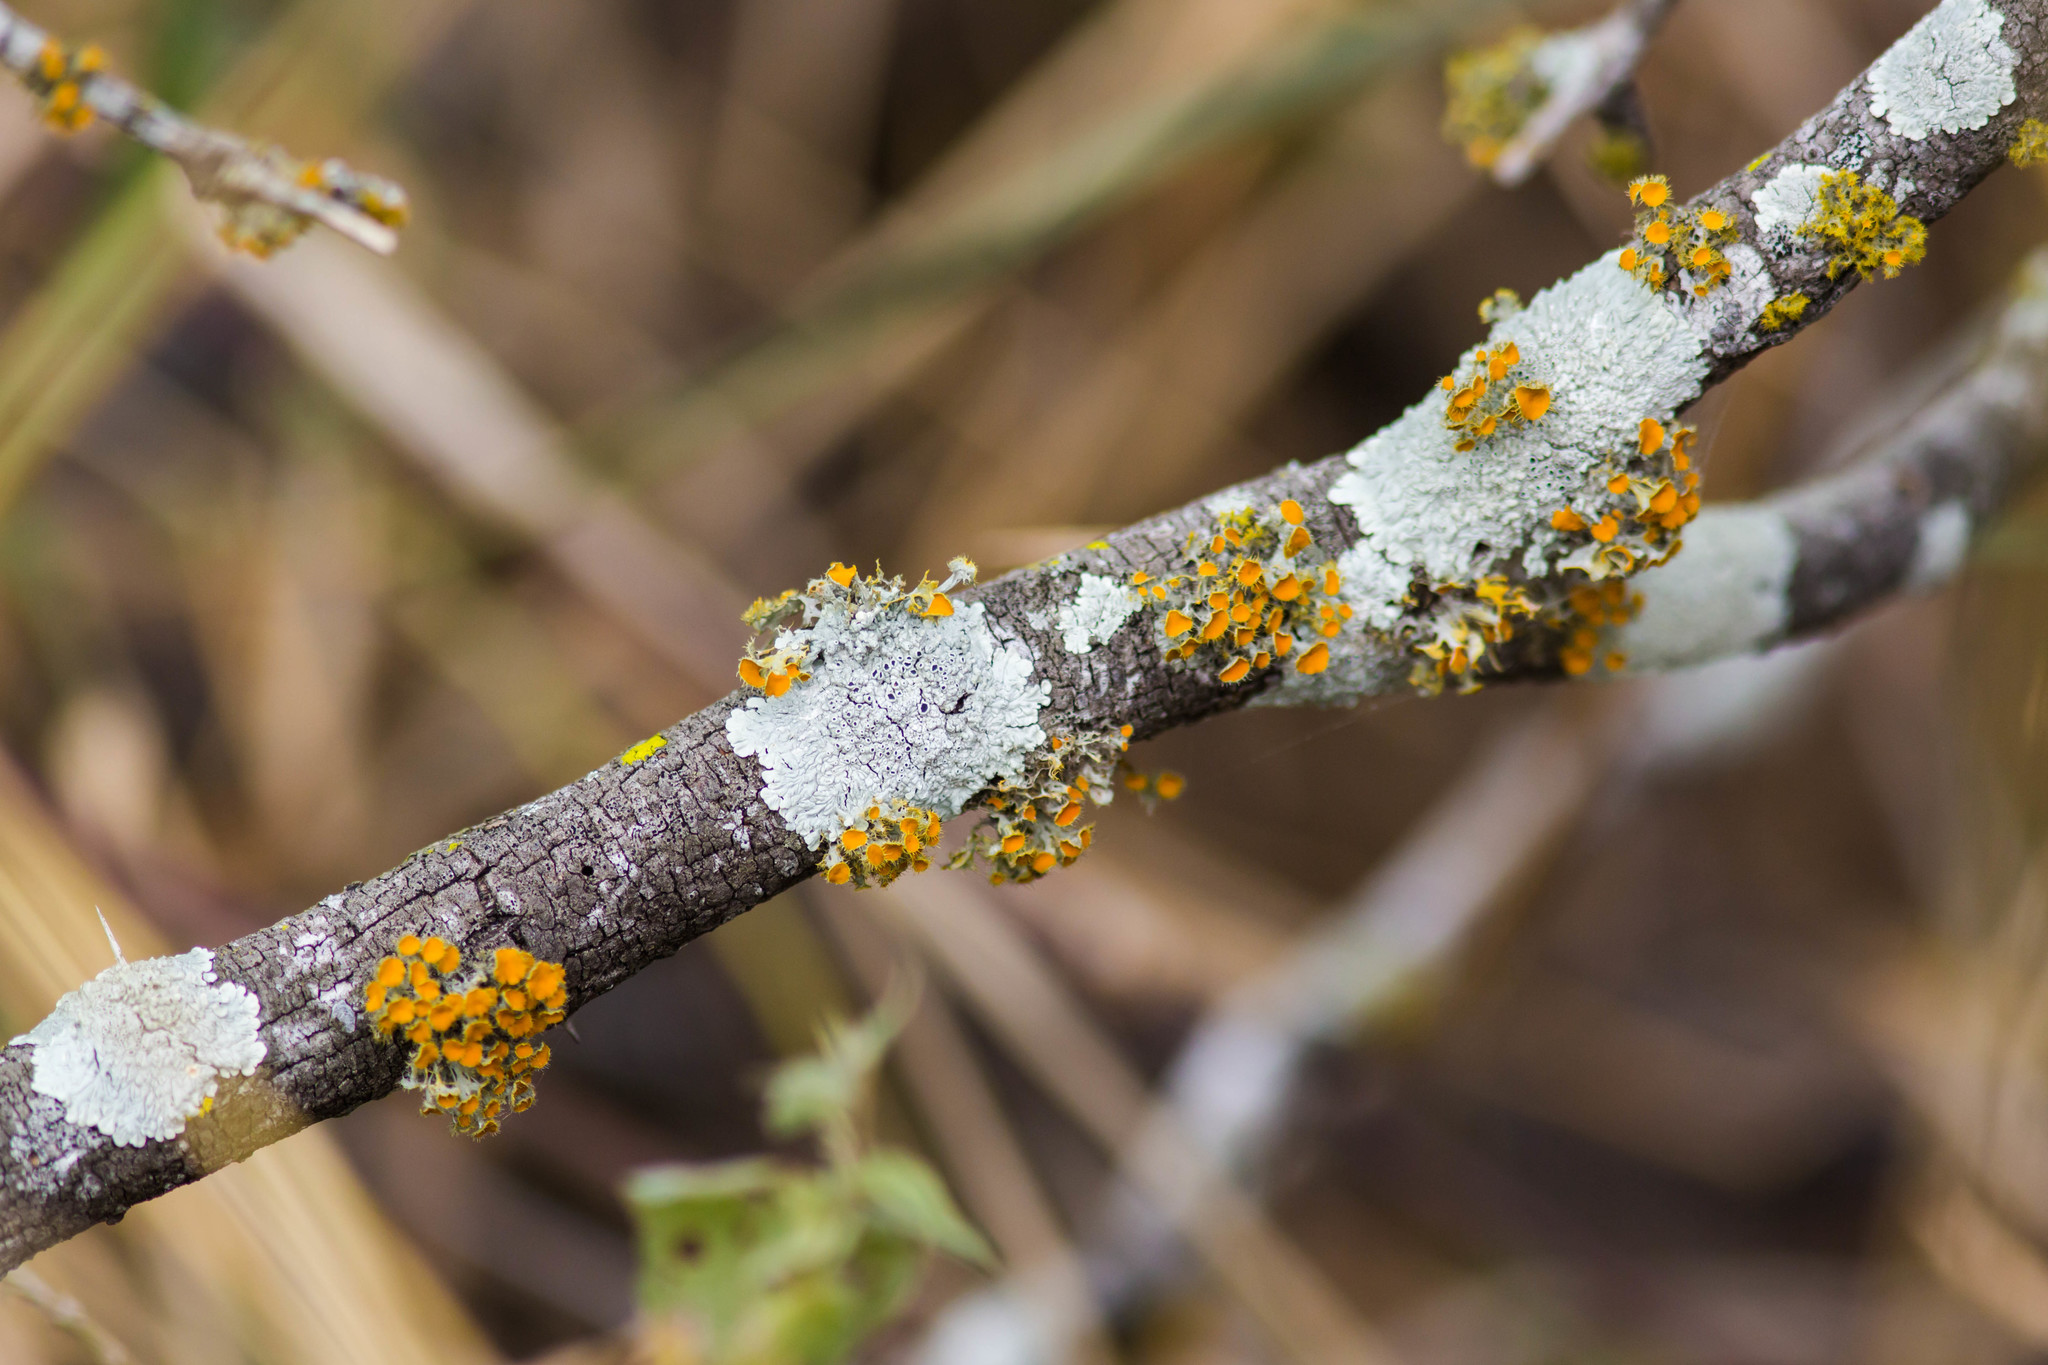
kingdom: Fungi
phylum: Ascomycota
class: Lecanoromycetes
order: Teloschistales
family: Teloschistaceae
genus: Niorma
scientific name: Niorma chrysophthalma
